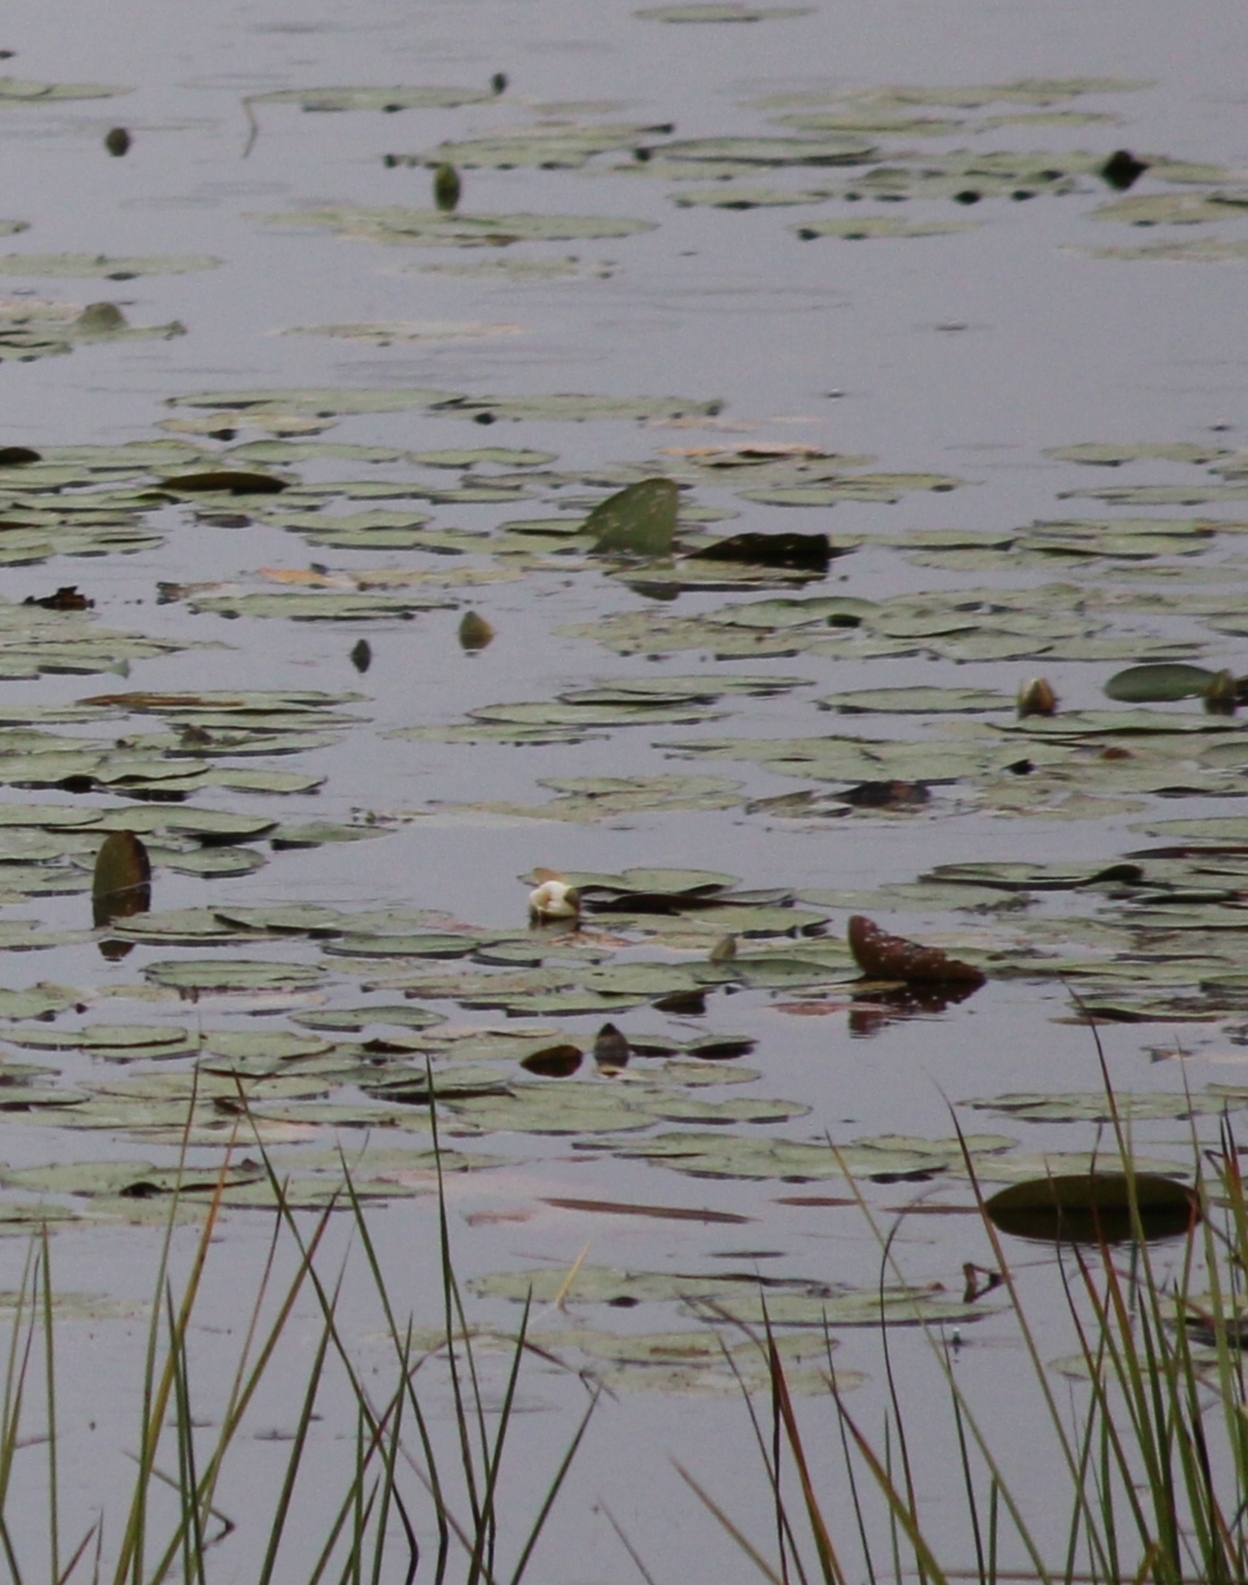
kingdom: Plantae
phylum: Tracheophyta
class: Magnoliopsida
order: Nymphaeales
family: Nymphaeaceae
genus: Nymphaea
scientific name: Nymphaea tetragona
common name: Pygmy water-lily
